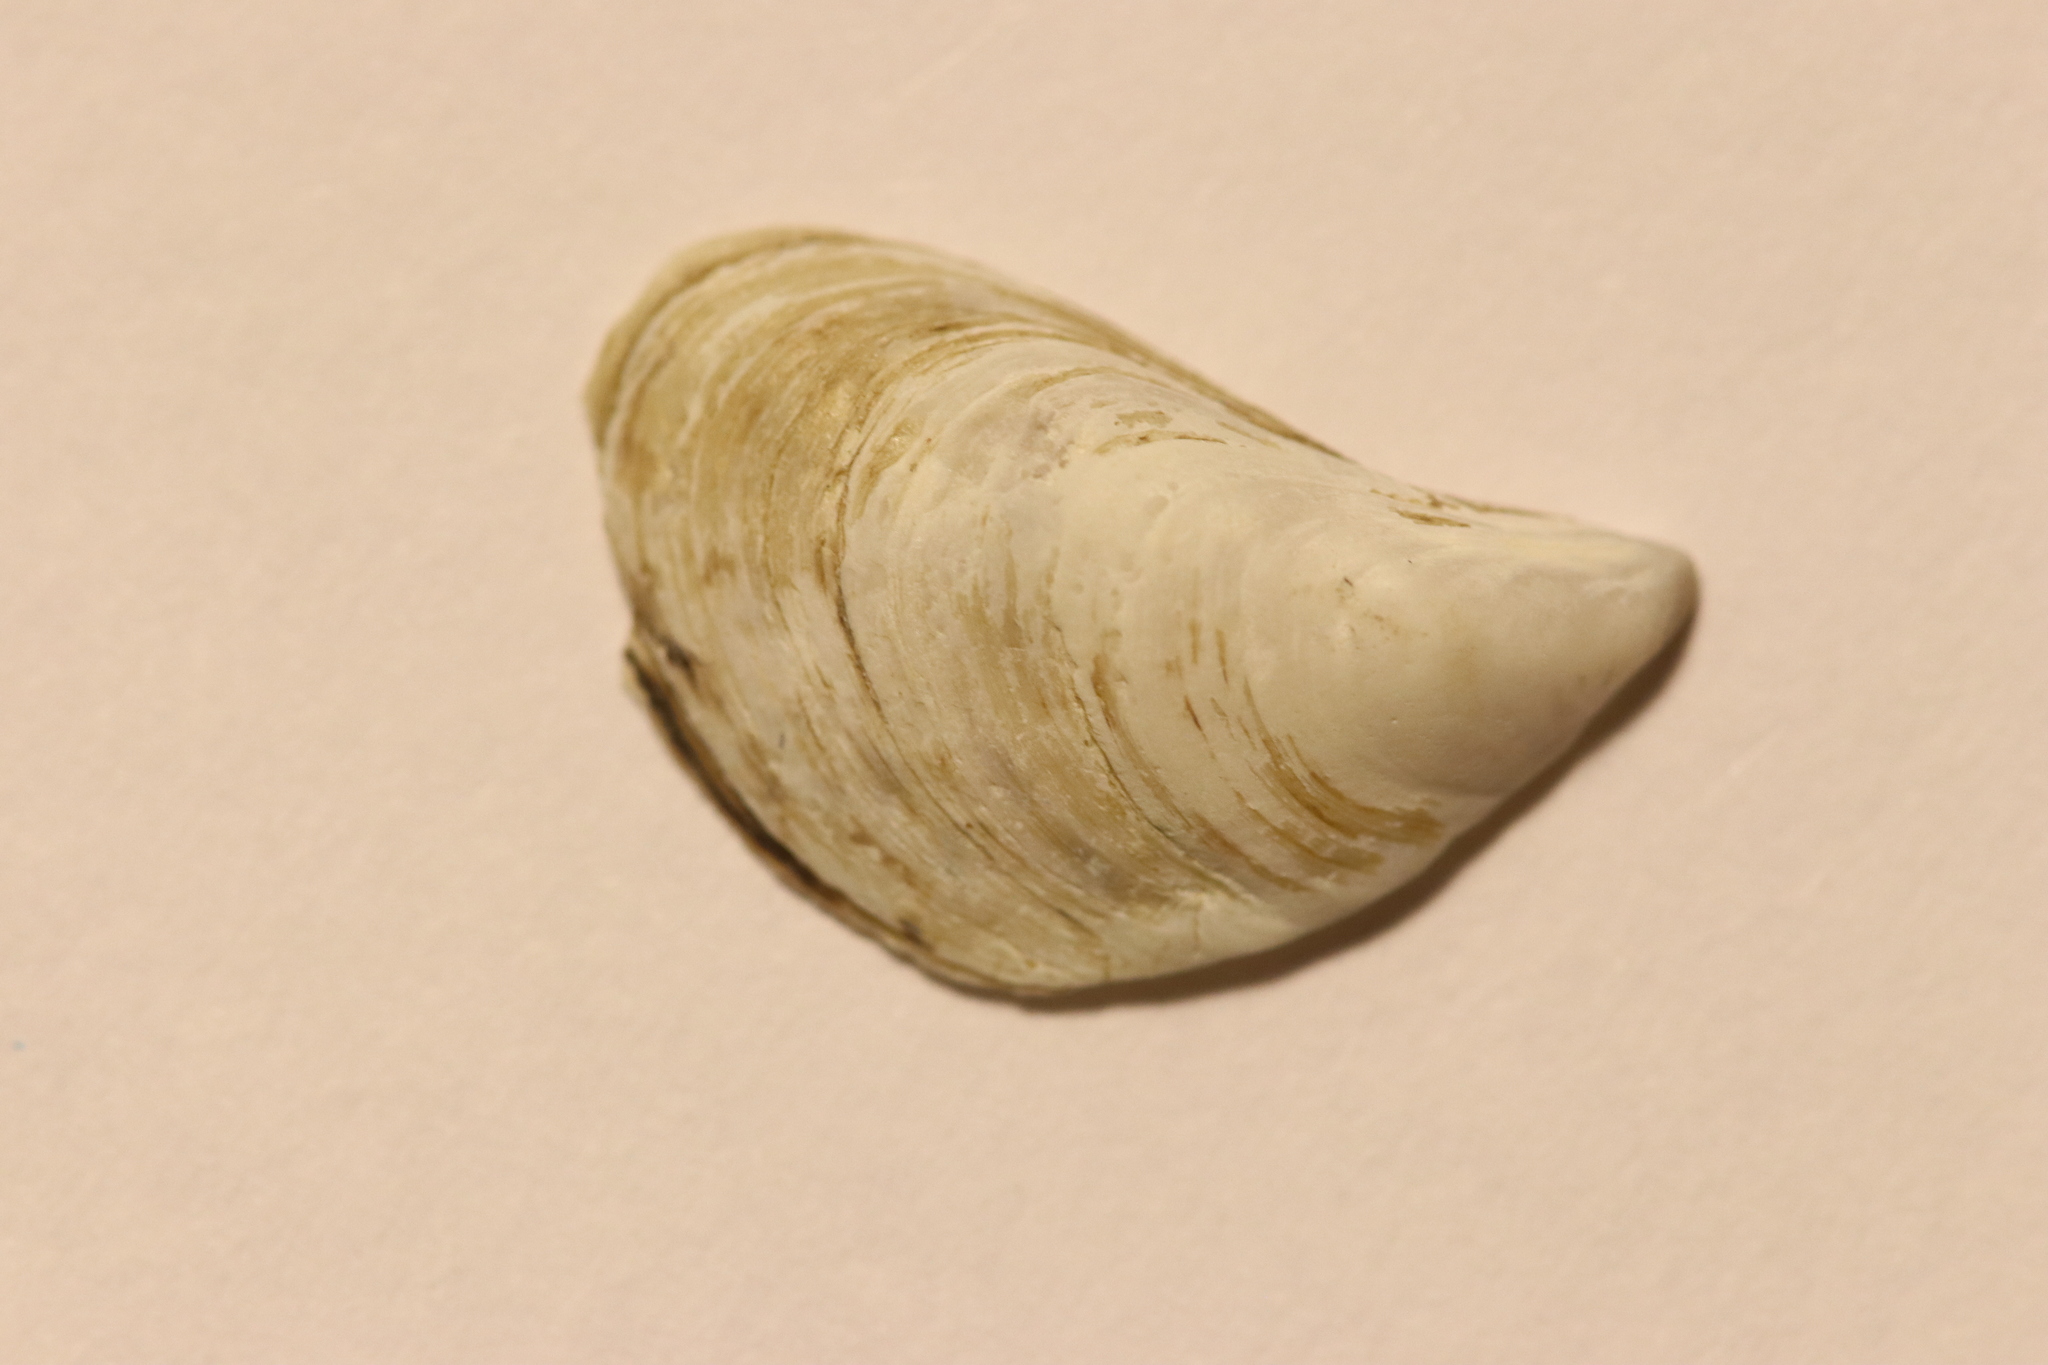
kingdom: Animalia
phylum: Mollusca
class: Bivalvia
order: Myida
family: Dreissenidae
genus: Dreissena
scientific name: Dreissena bugensis
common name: Quagga mussel
